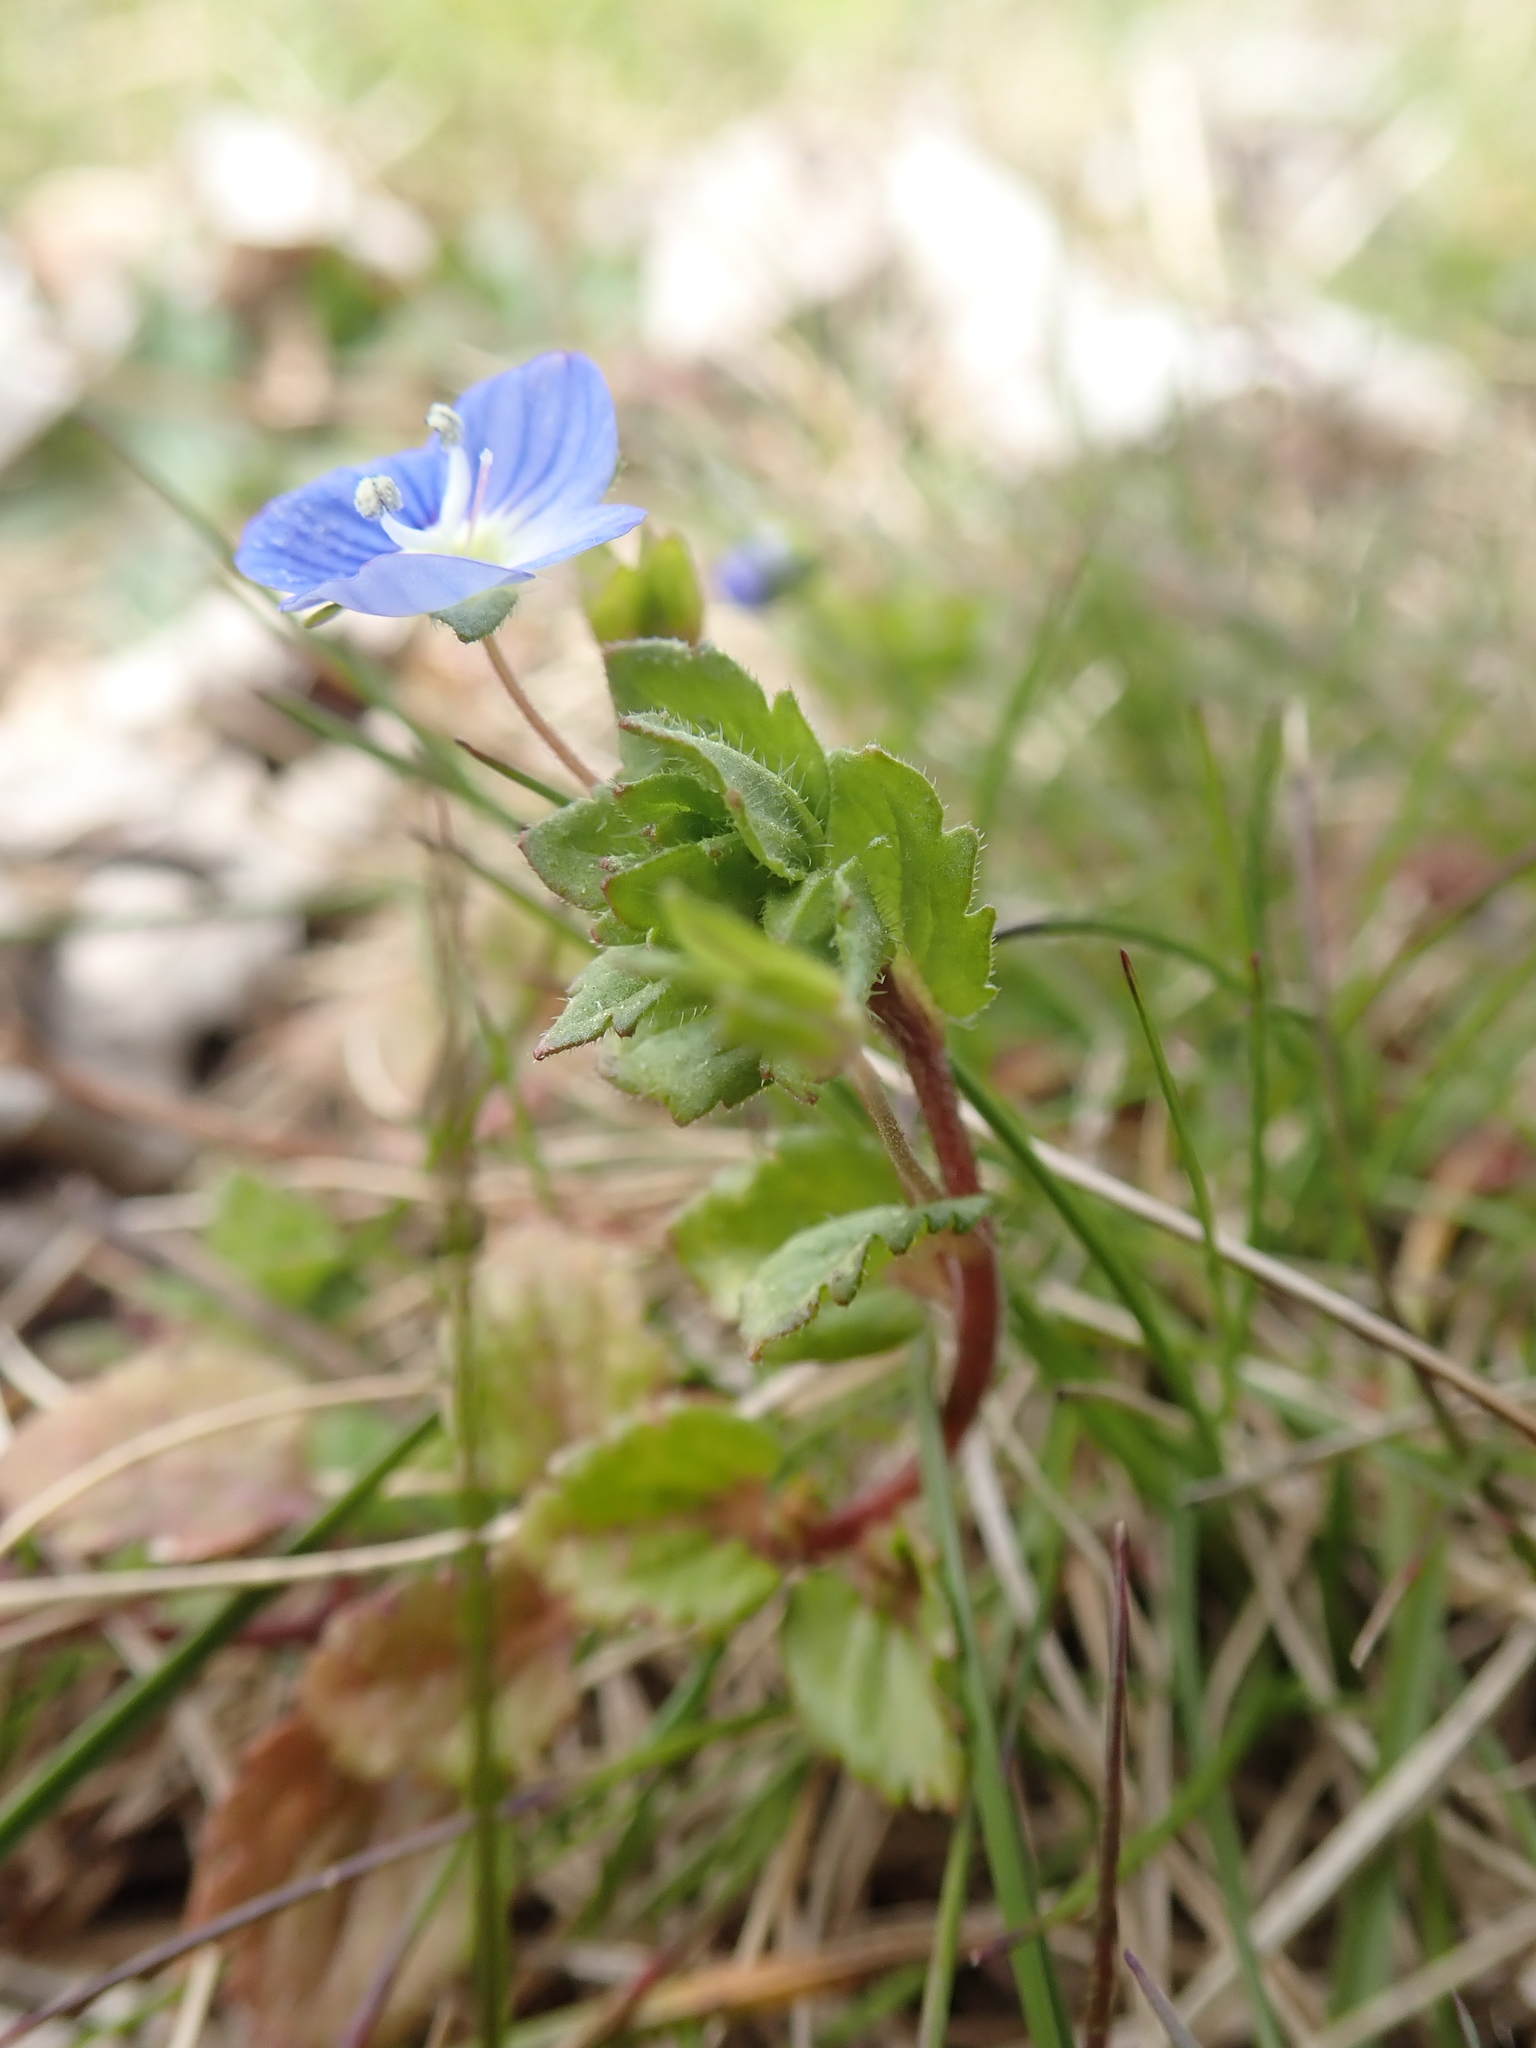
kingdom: Plantae
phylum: Tracheophyta
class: Magnoliopsida
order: Lamiales
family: Plantaginaceae
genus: Veronica
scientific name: Veronica persica
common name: Common field-speedwell
